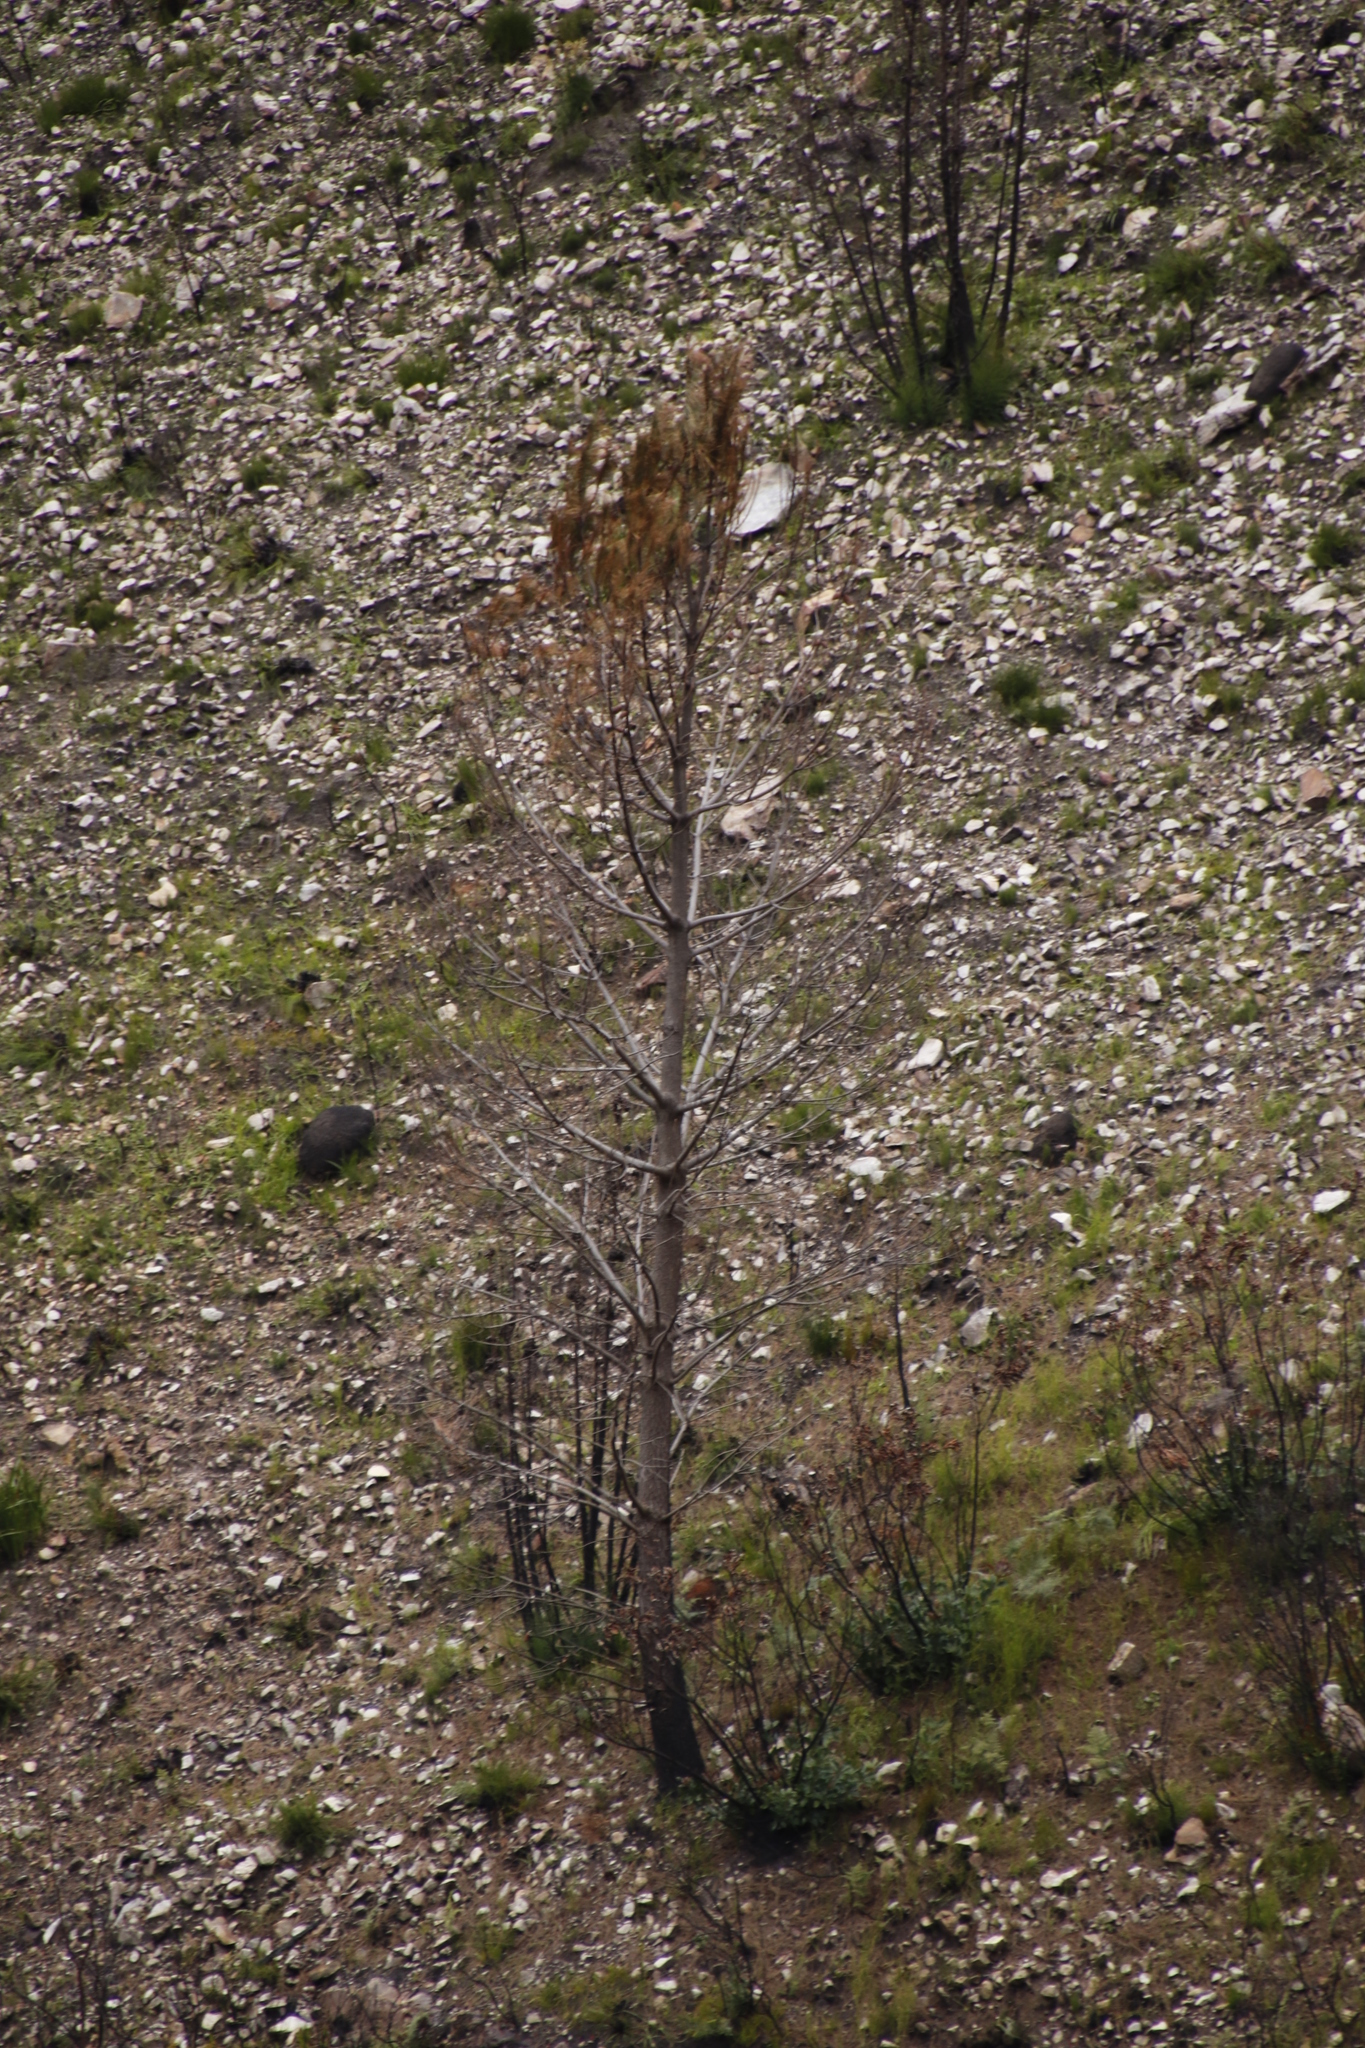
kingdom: Plantae
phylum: Tracheophyta
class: Pinopsida
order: Pinales
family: Pinaceae
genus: Pinus
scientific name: Pinus canariensis
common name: Canary islands pine
